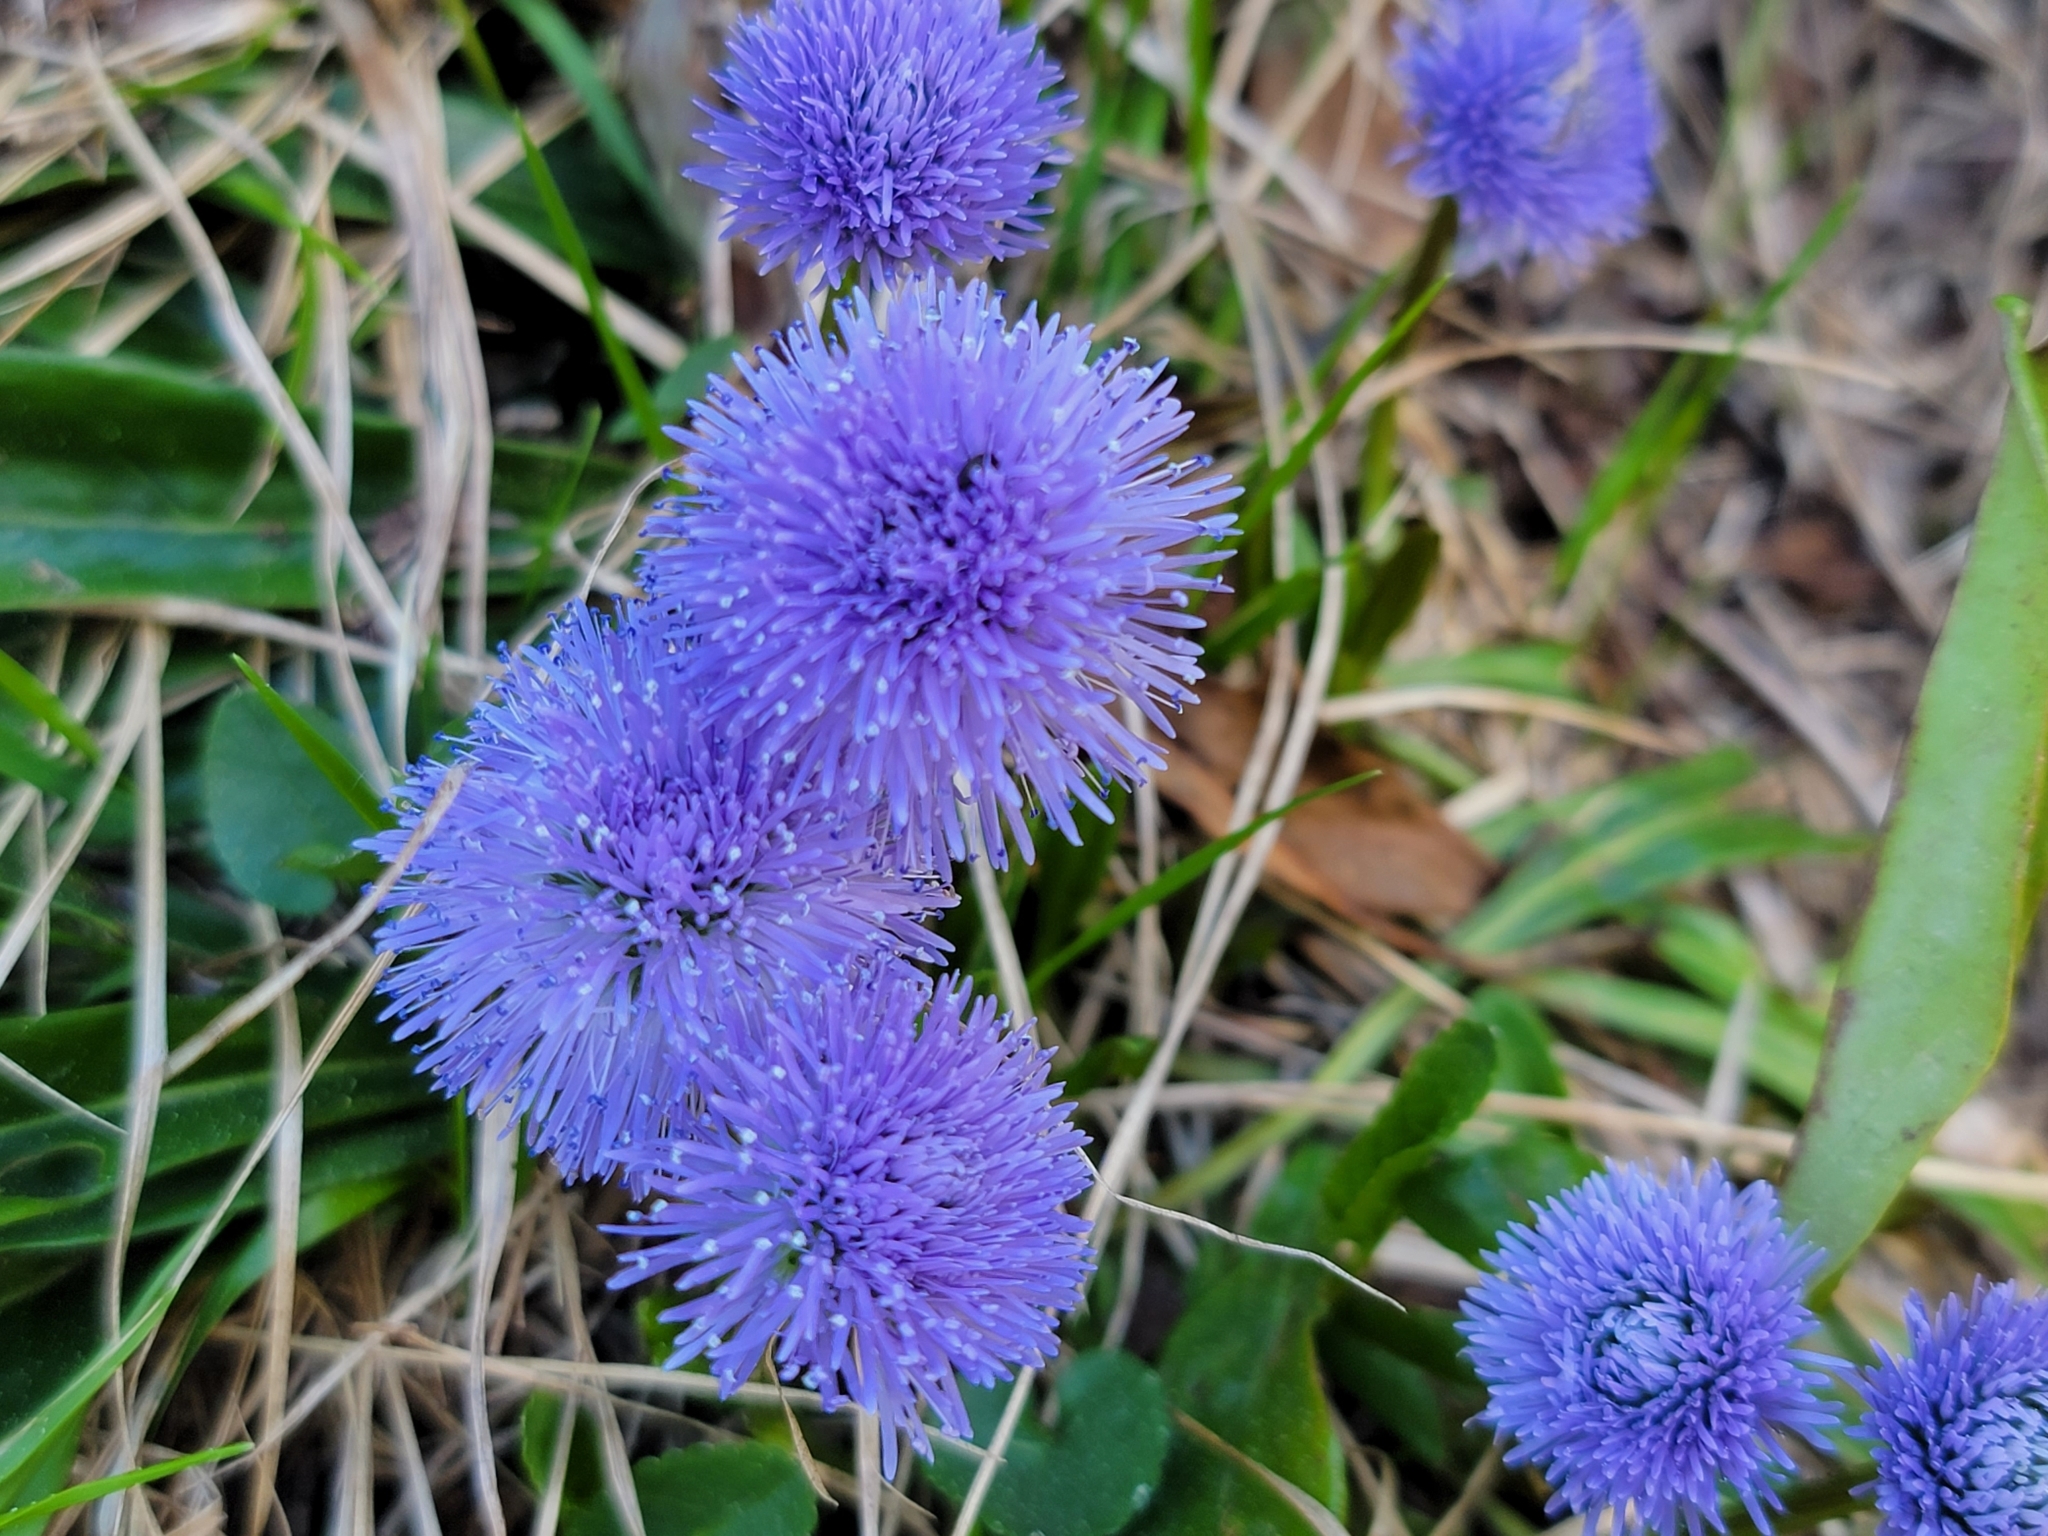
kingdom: Plantae
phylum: Tracheophyta
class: Magnoliopsida
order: Lamiales
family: Plantaginaceae
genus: Globularia
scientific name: Globularia nudicaulis
